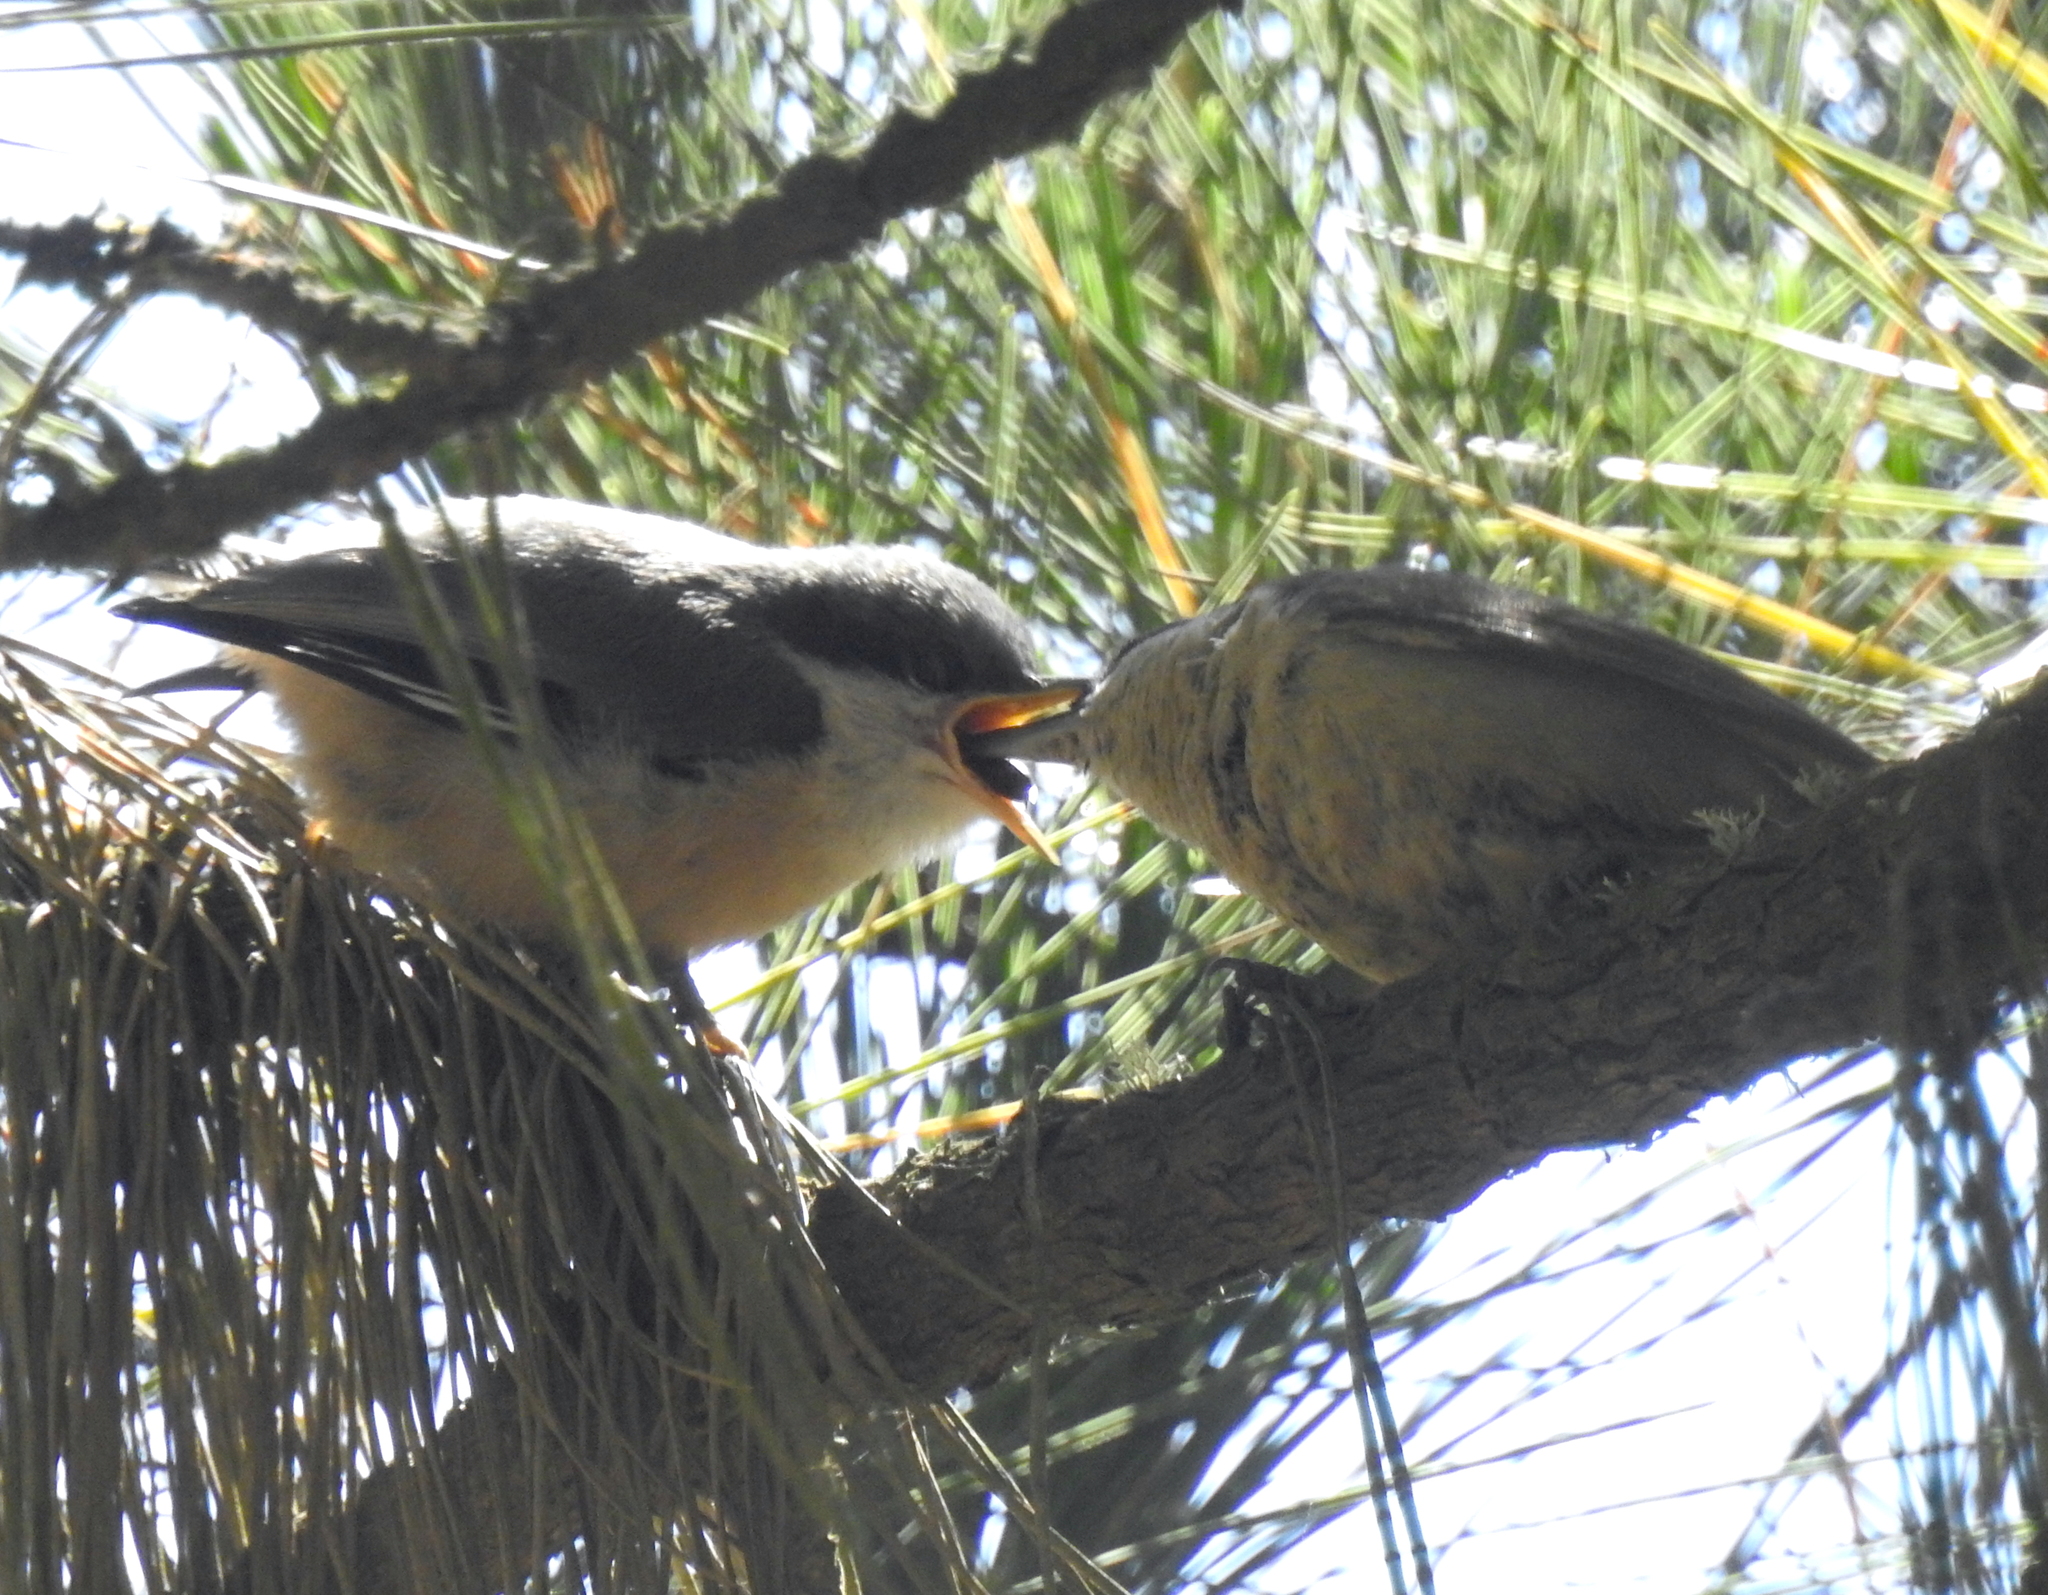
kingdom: Animalia
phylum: Chordata
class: Aves
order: Passeriformes
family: Sittidae
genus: Sitta
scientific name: Sitta pygmaea
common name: Pygmy nuthatch
